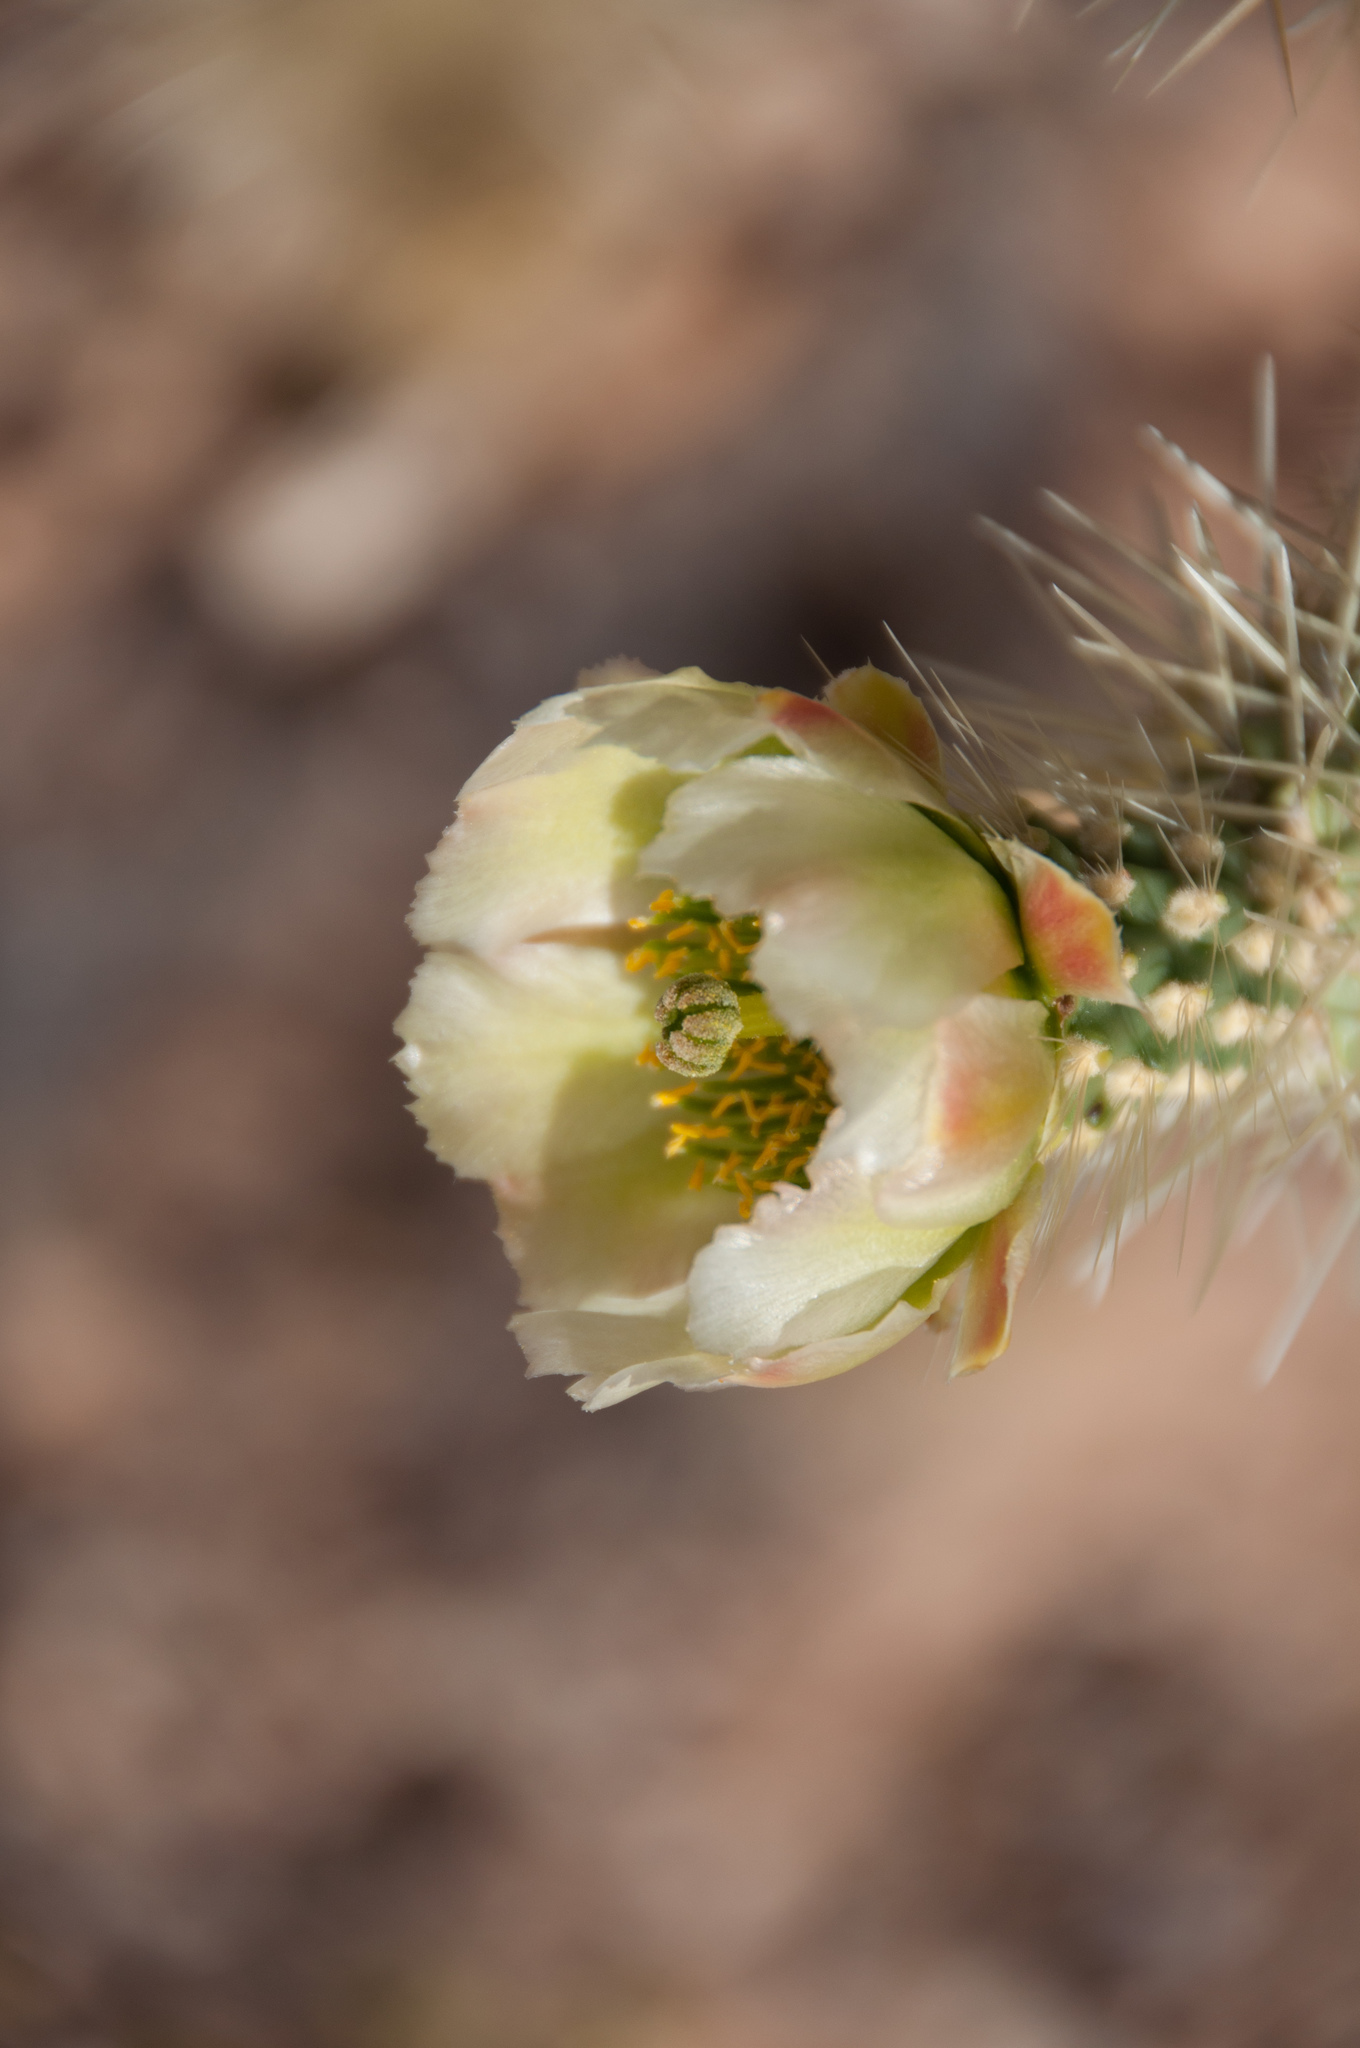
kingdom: Plantae
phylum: Tracheophyta
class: Magnoliopsida
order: Caryophyllales
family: Cactaceae
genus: Cylindropuntia
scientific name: Cylindropuntia fosbergii
